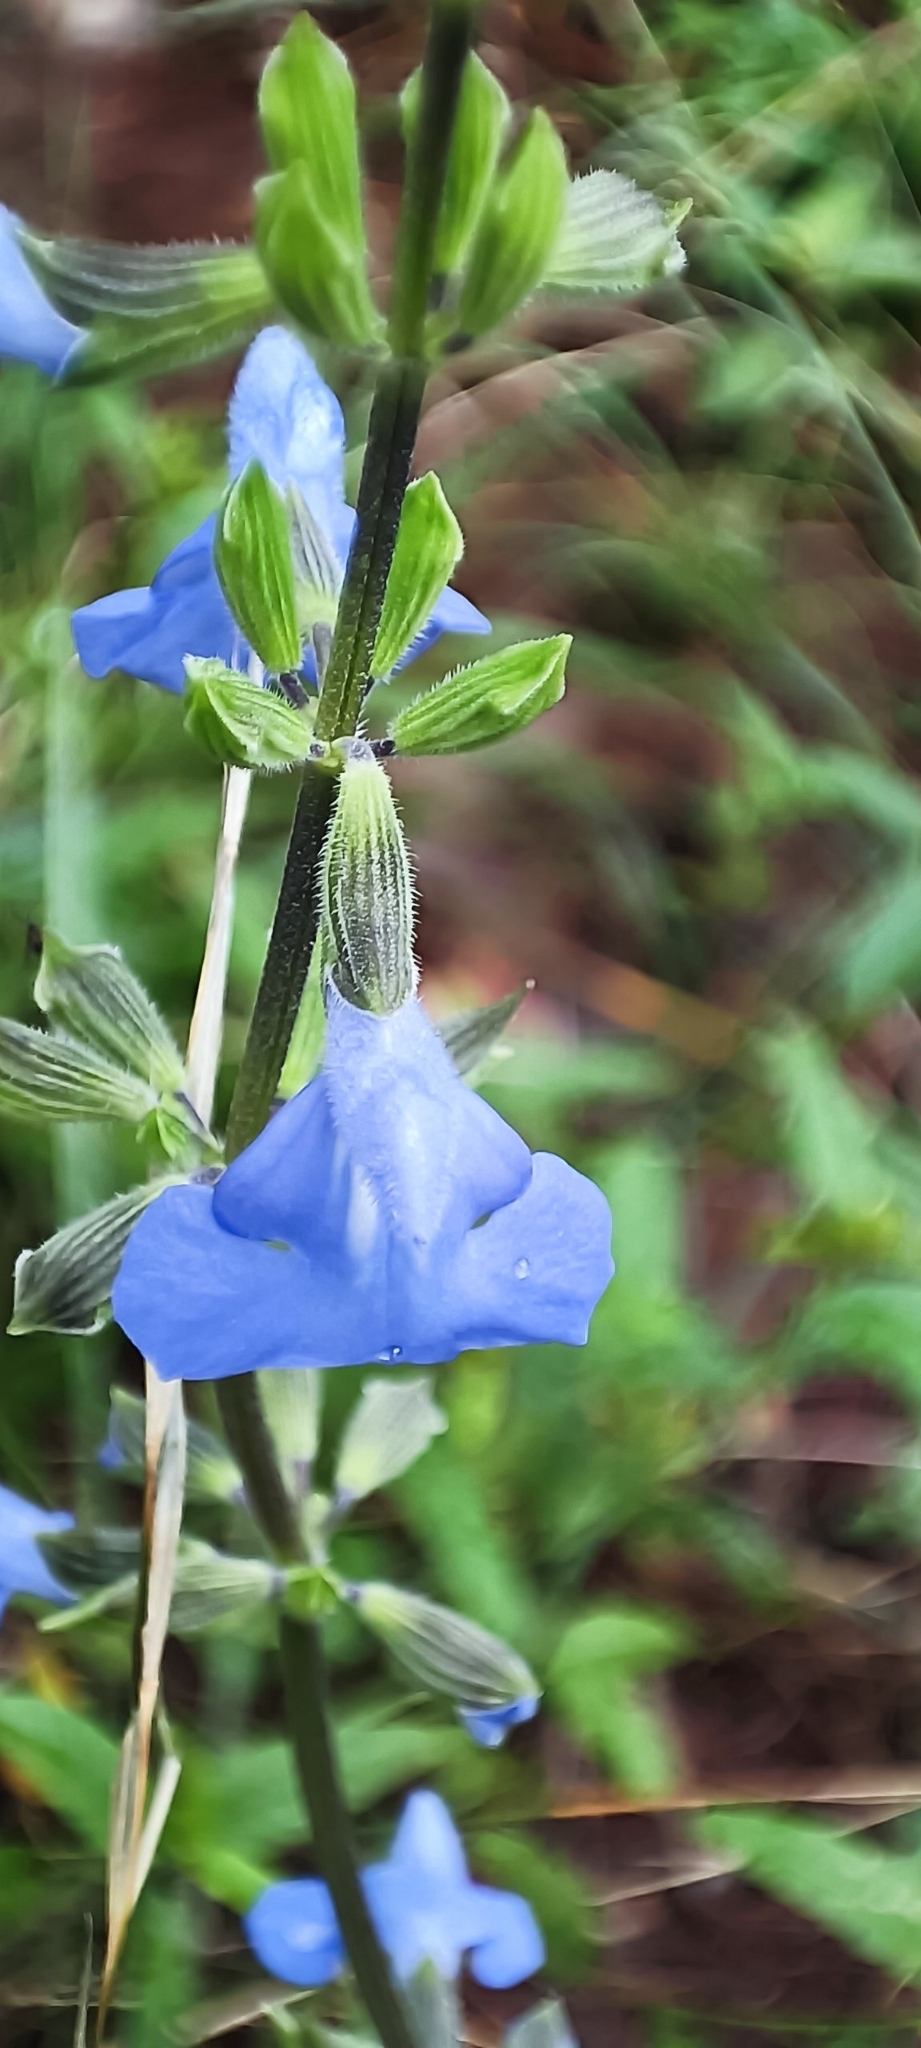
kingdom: Plantae
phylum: Tracheophyta
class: Magnoliopsida
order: Lamiales
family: Lamiaceae
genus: Salvia
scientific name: Salvia jaimehintoniana
